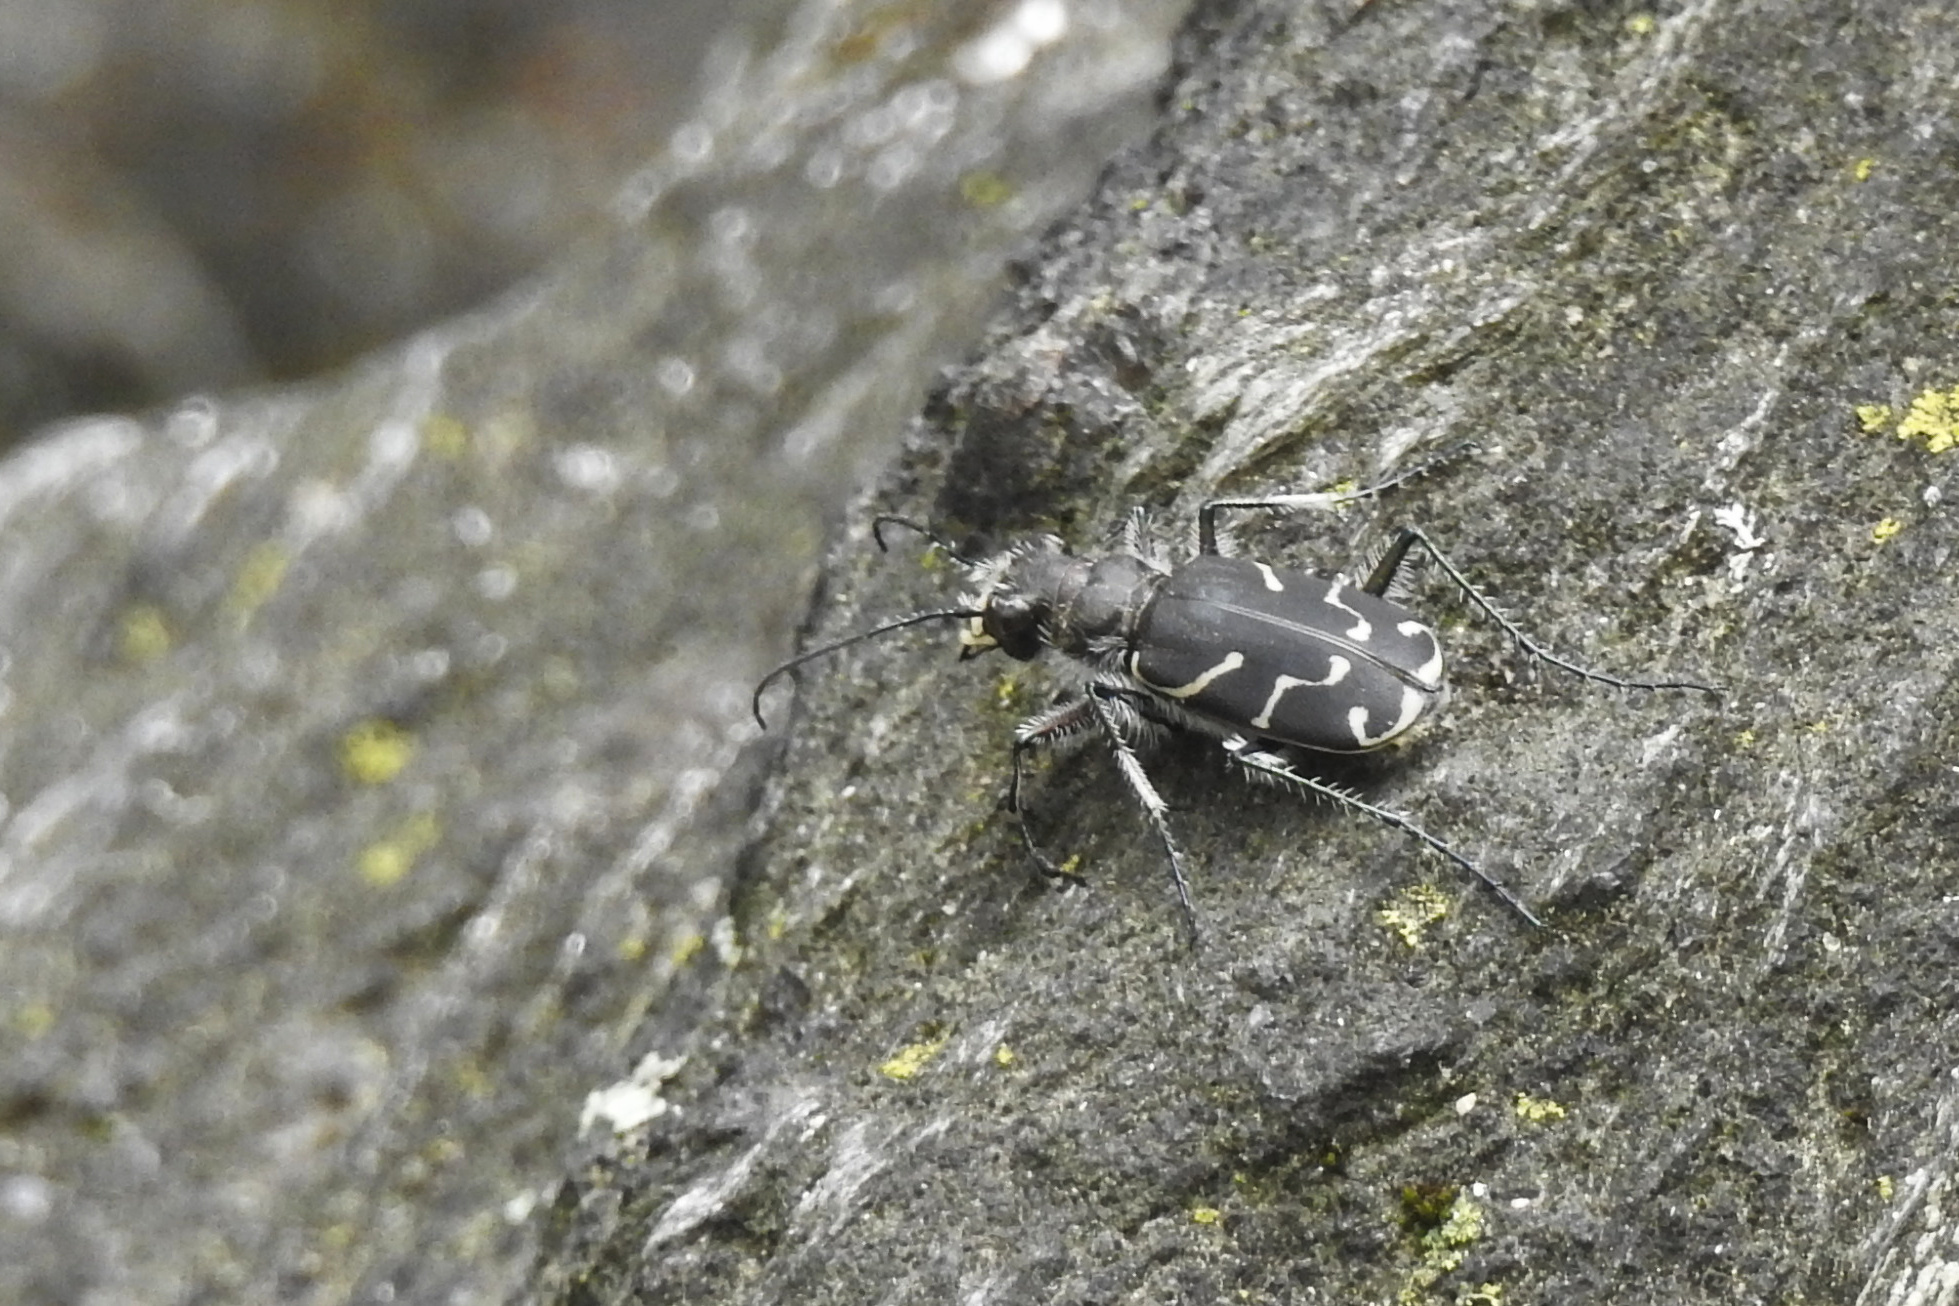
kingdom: Animalia
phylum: Arthropoda
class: Insecta
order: Coleoptera
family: Carabidae
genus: Cicindela
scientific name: Cicindela tranquebarica
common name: Oblique-lined tiger beetle
